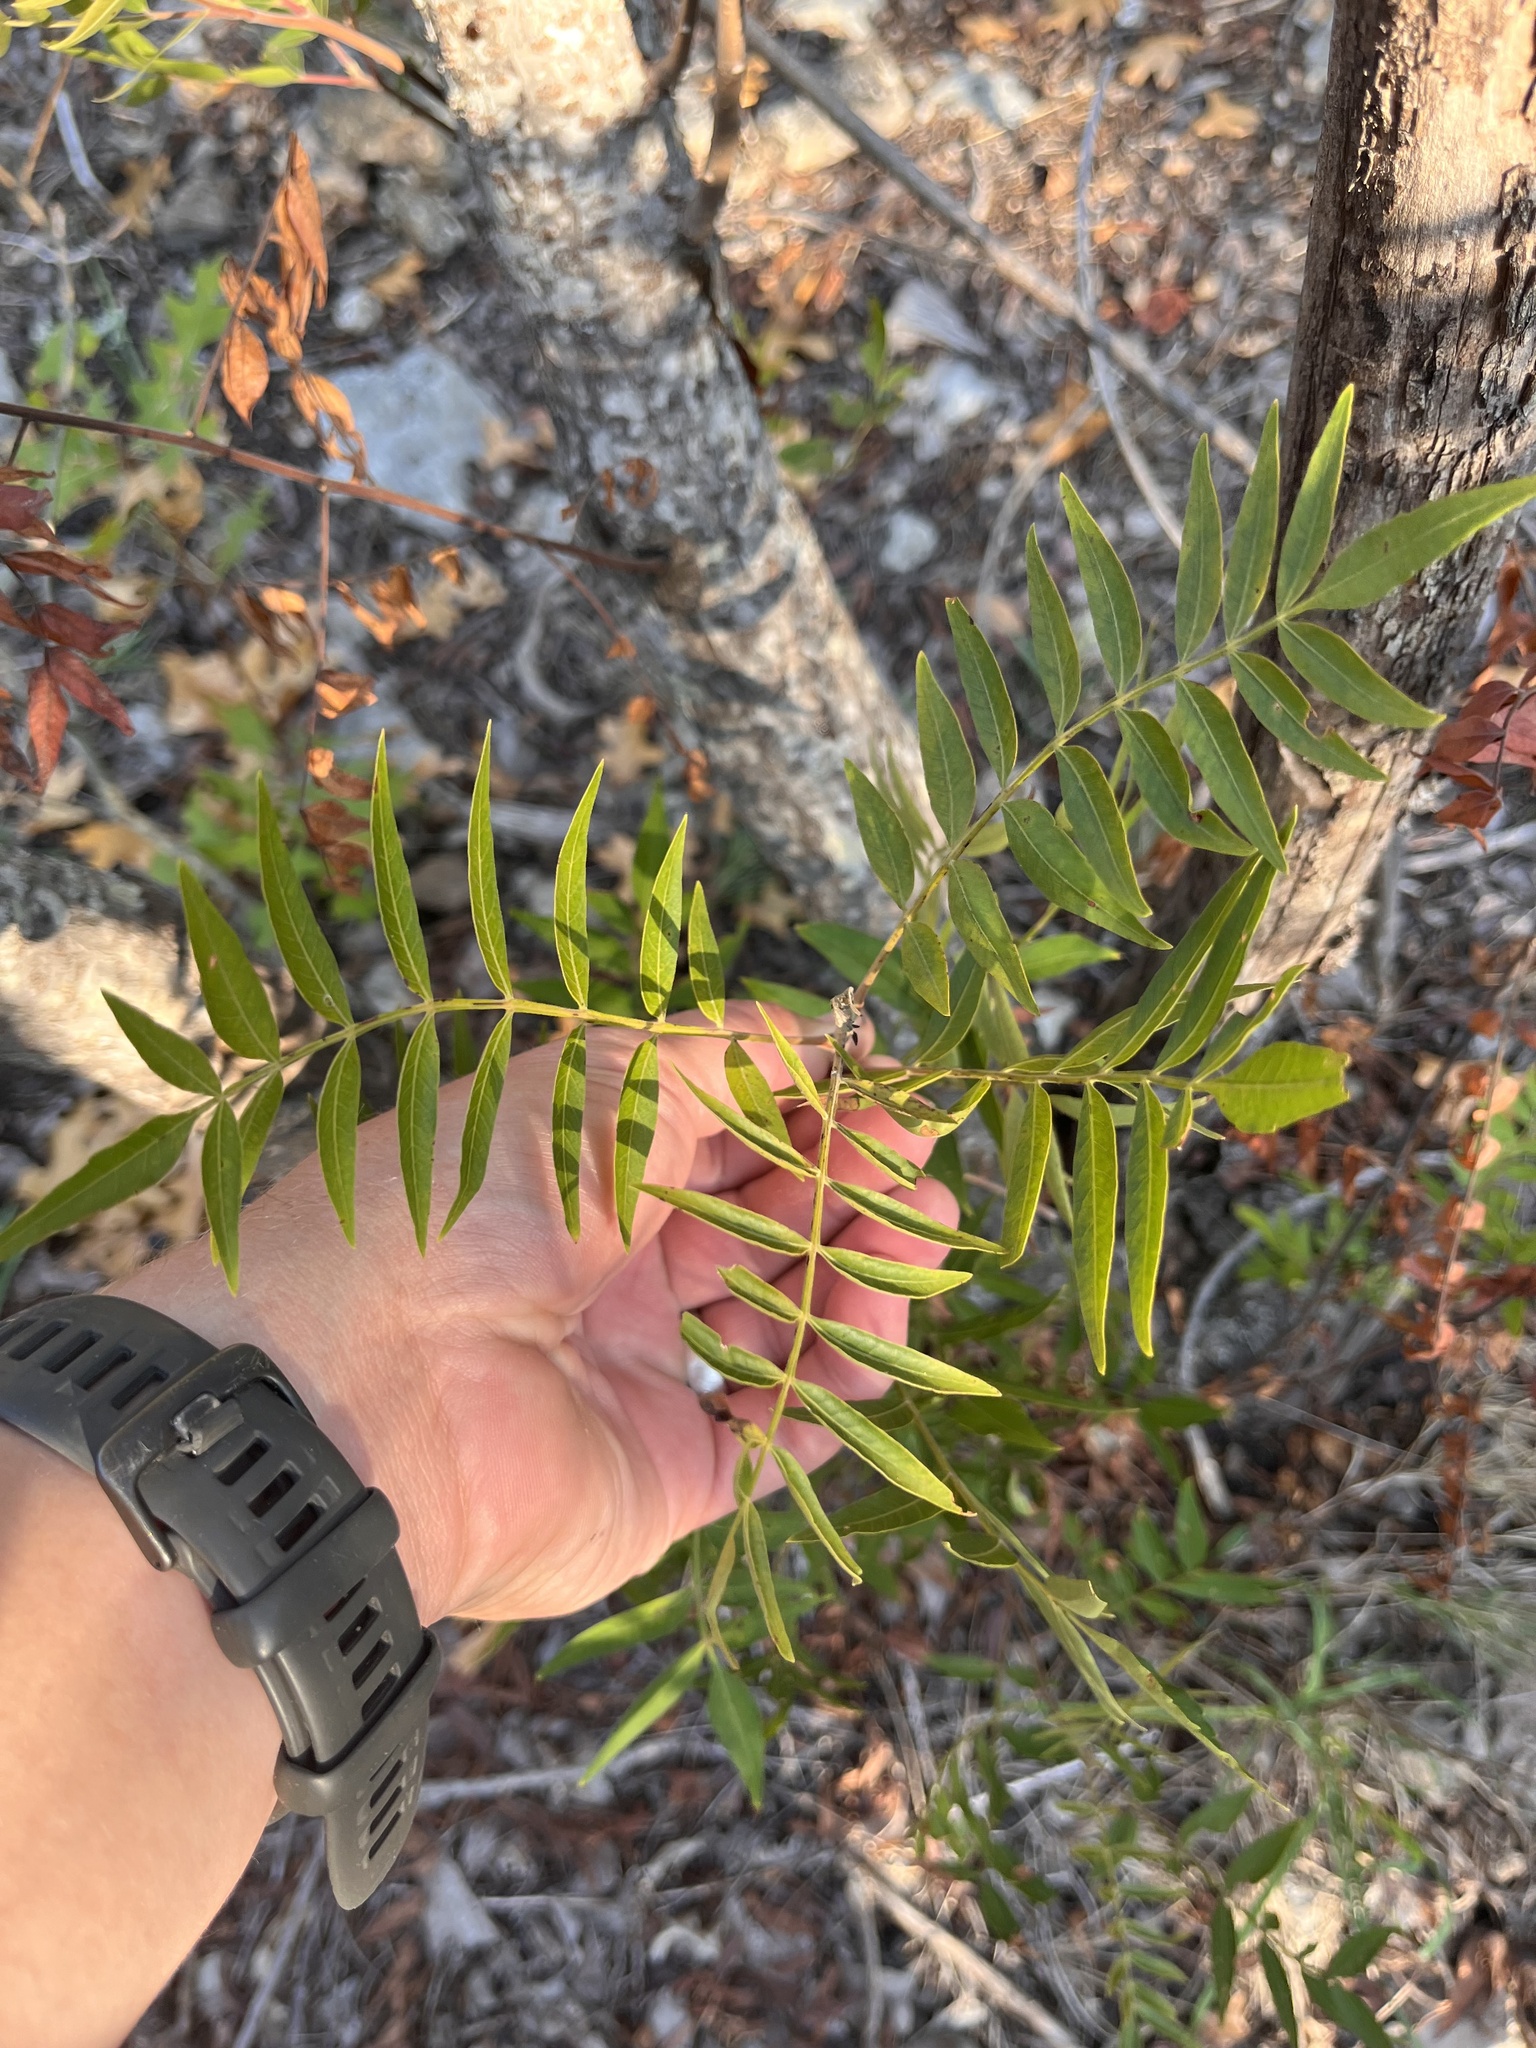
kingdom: Plantae
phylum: Tracheophyta
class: Magnoliopsida
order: Sapindales
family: Anacardiaceae
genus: Rhus
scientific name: Rhus lanceolata
